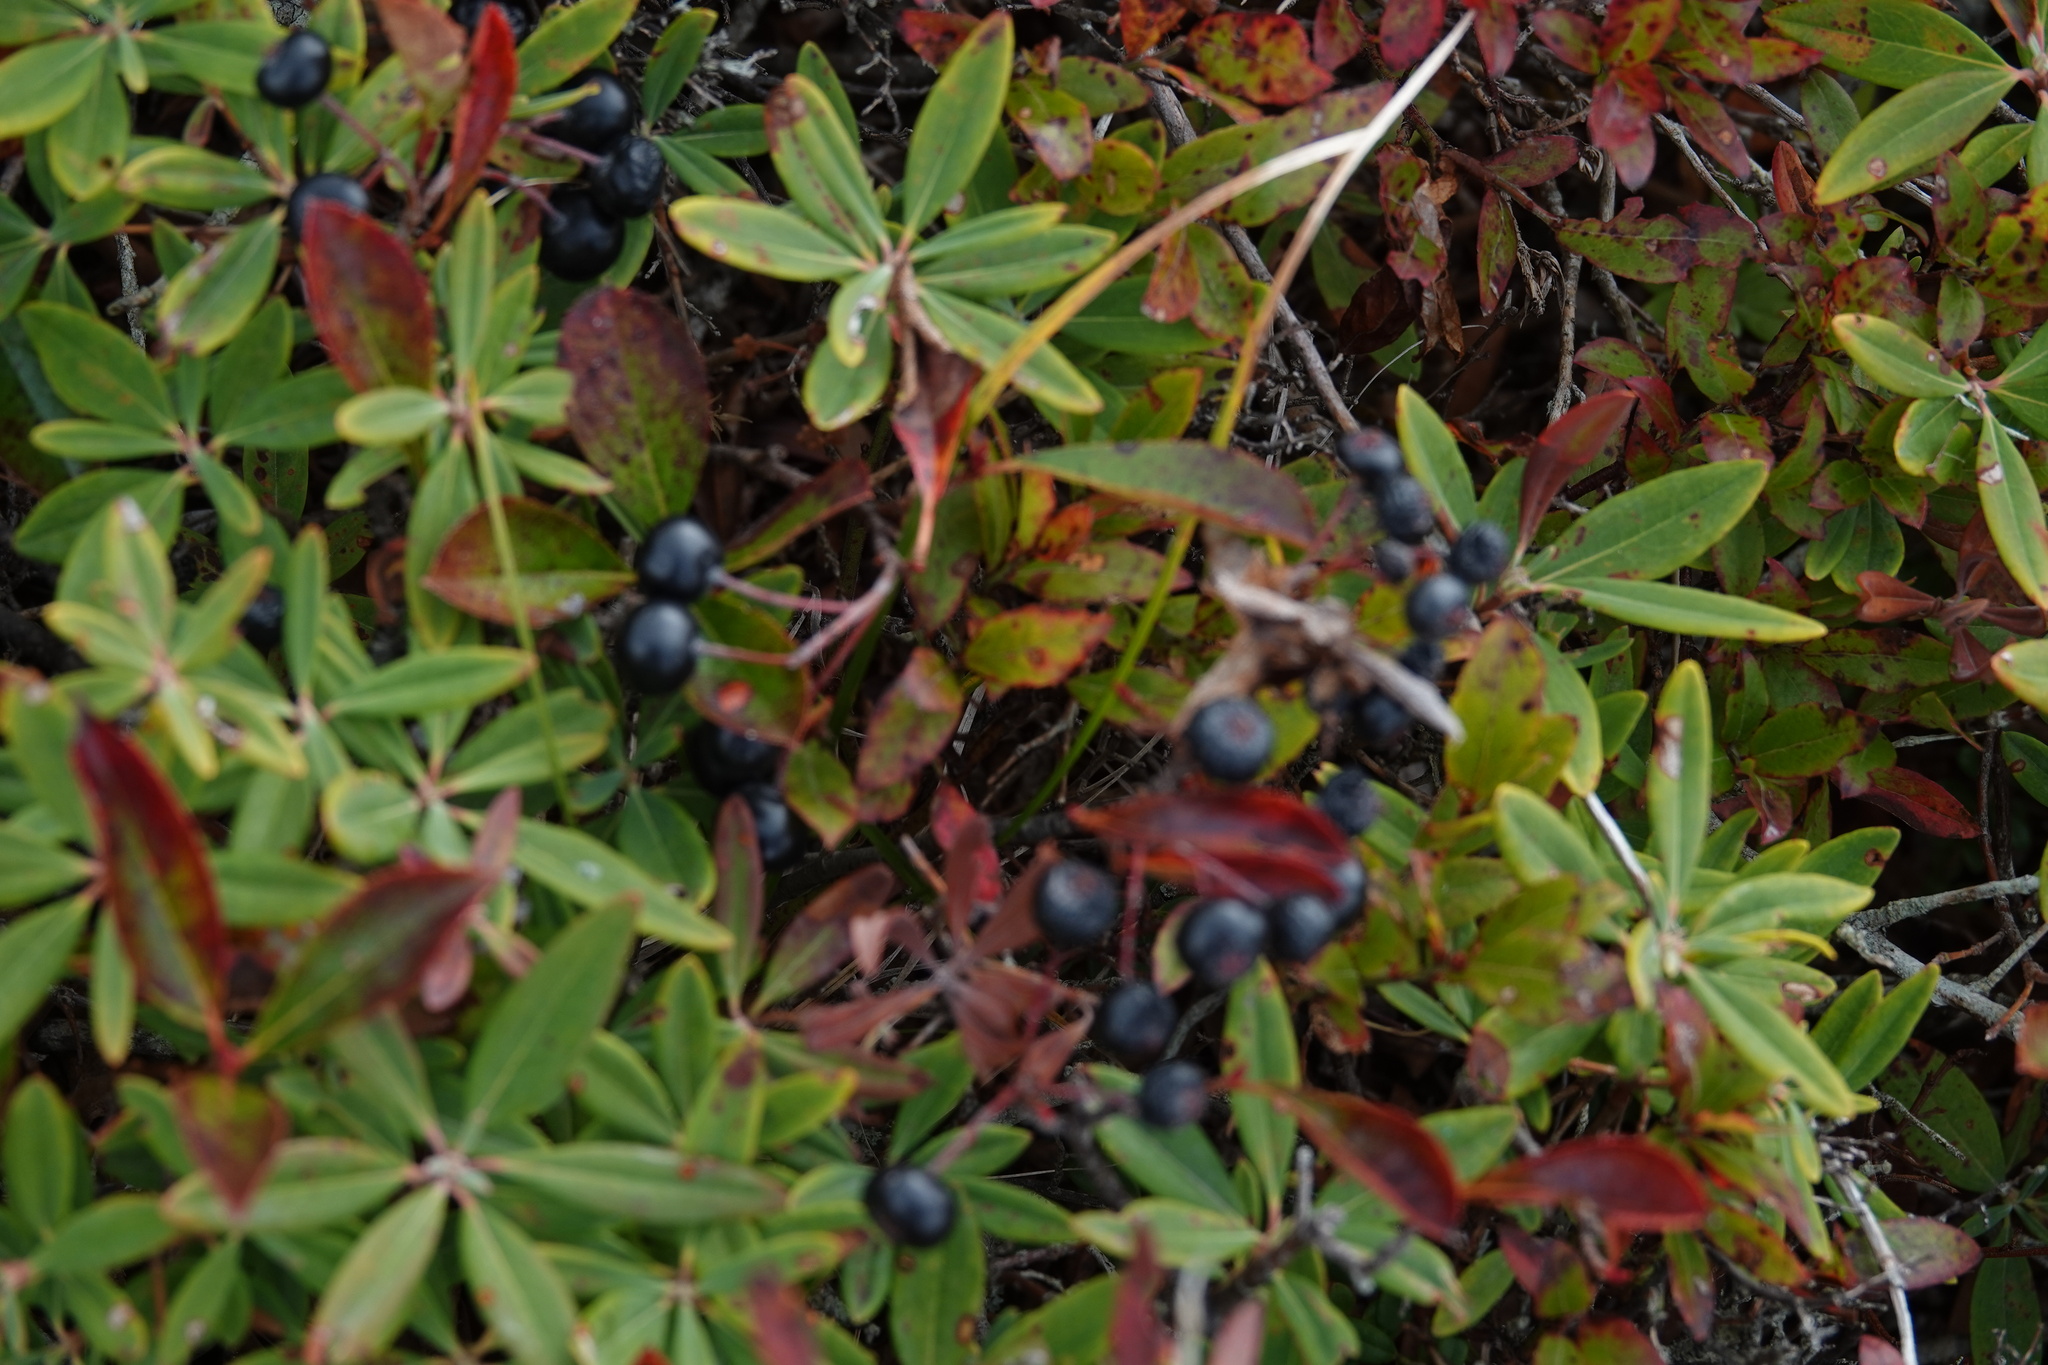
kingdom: Plantae
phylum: Tracheophyta
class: Magnoliopsida
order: Ericales
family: Ericaceae
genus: Kalmia
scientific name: Kalmia angustifolia
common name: Sheep-laurel
